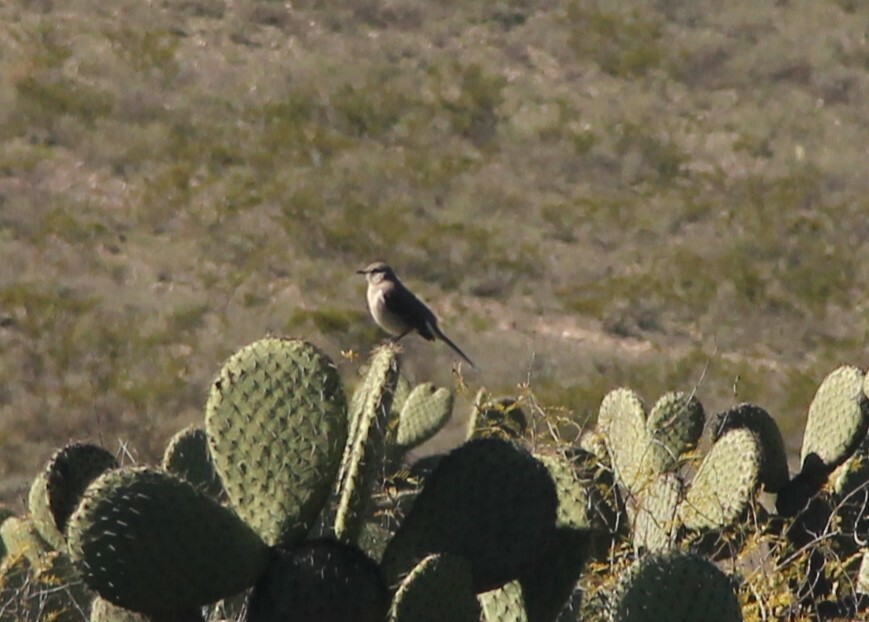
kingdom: Animalia
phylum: Chordata
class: Aves
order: Passeriformes
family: Mimidae
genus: Mimus
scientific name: Mimus polyglottos
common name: Northern mockingbird
